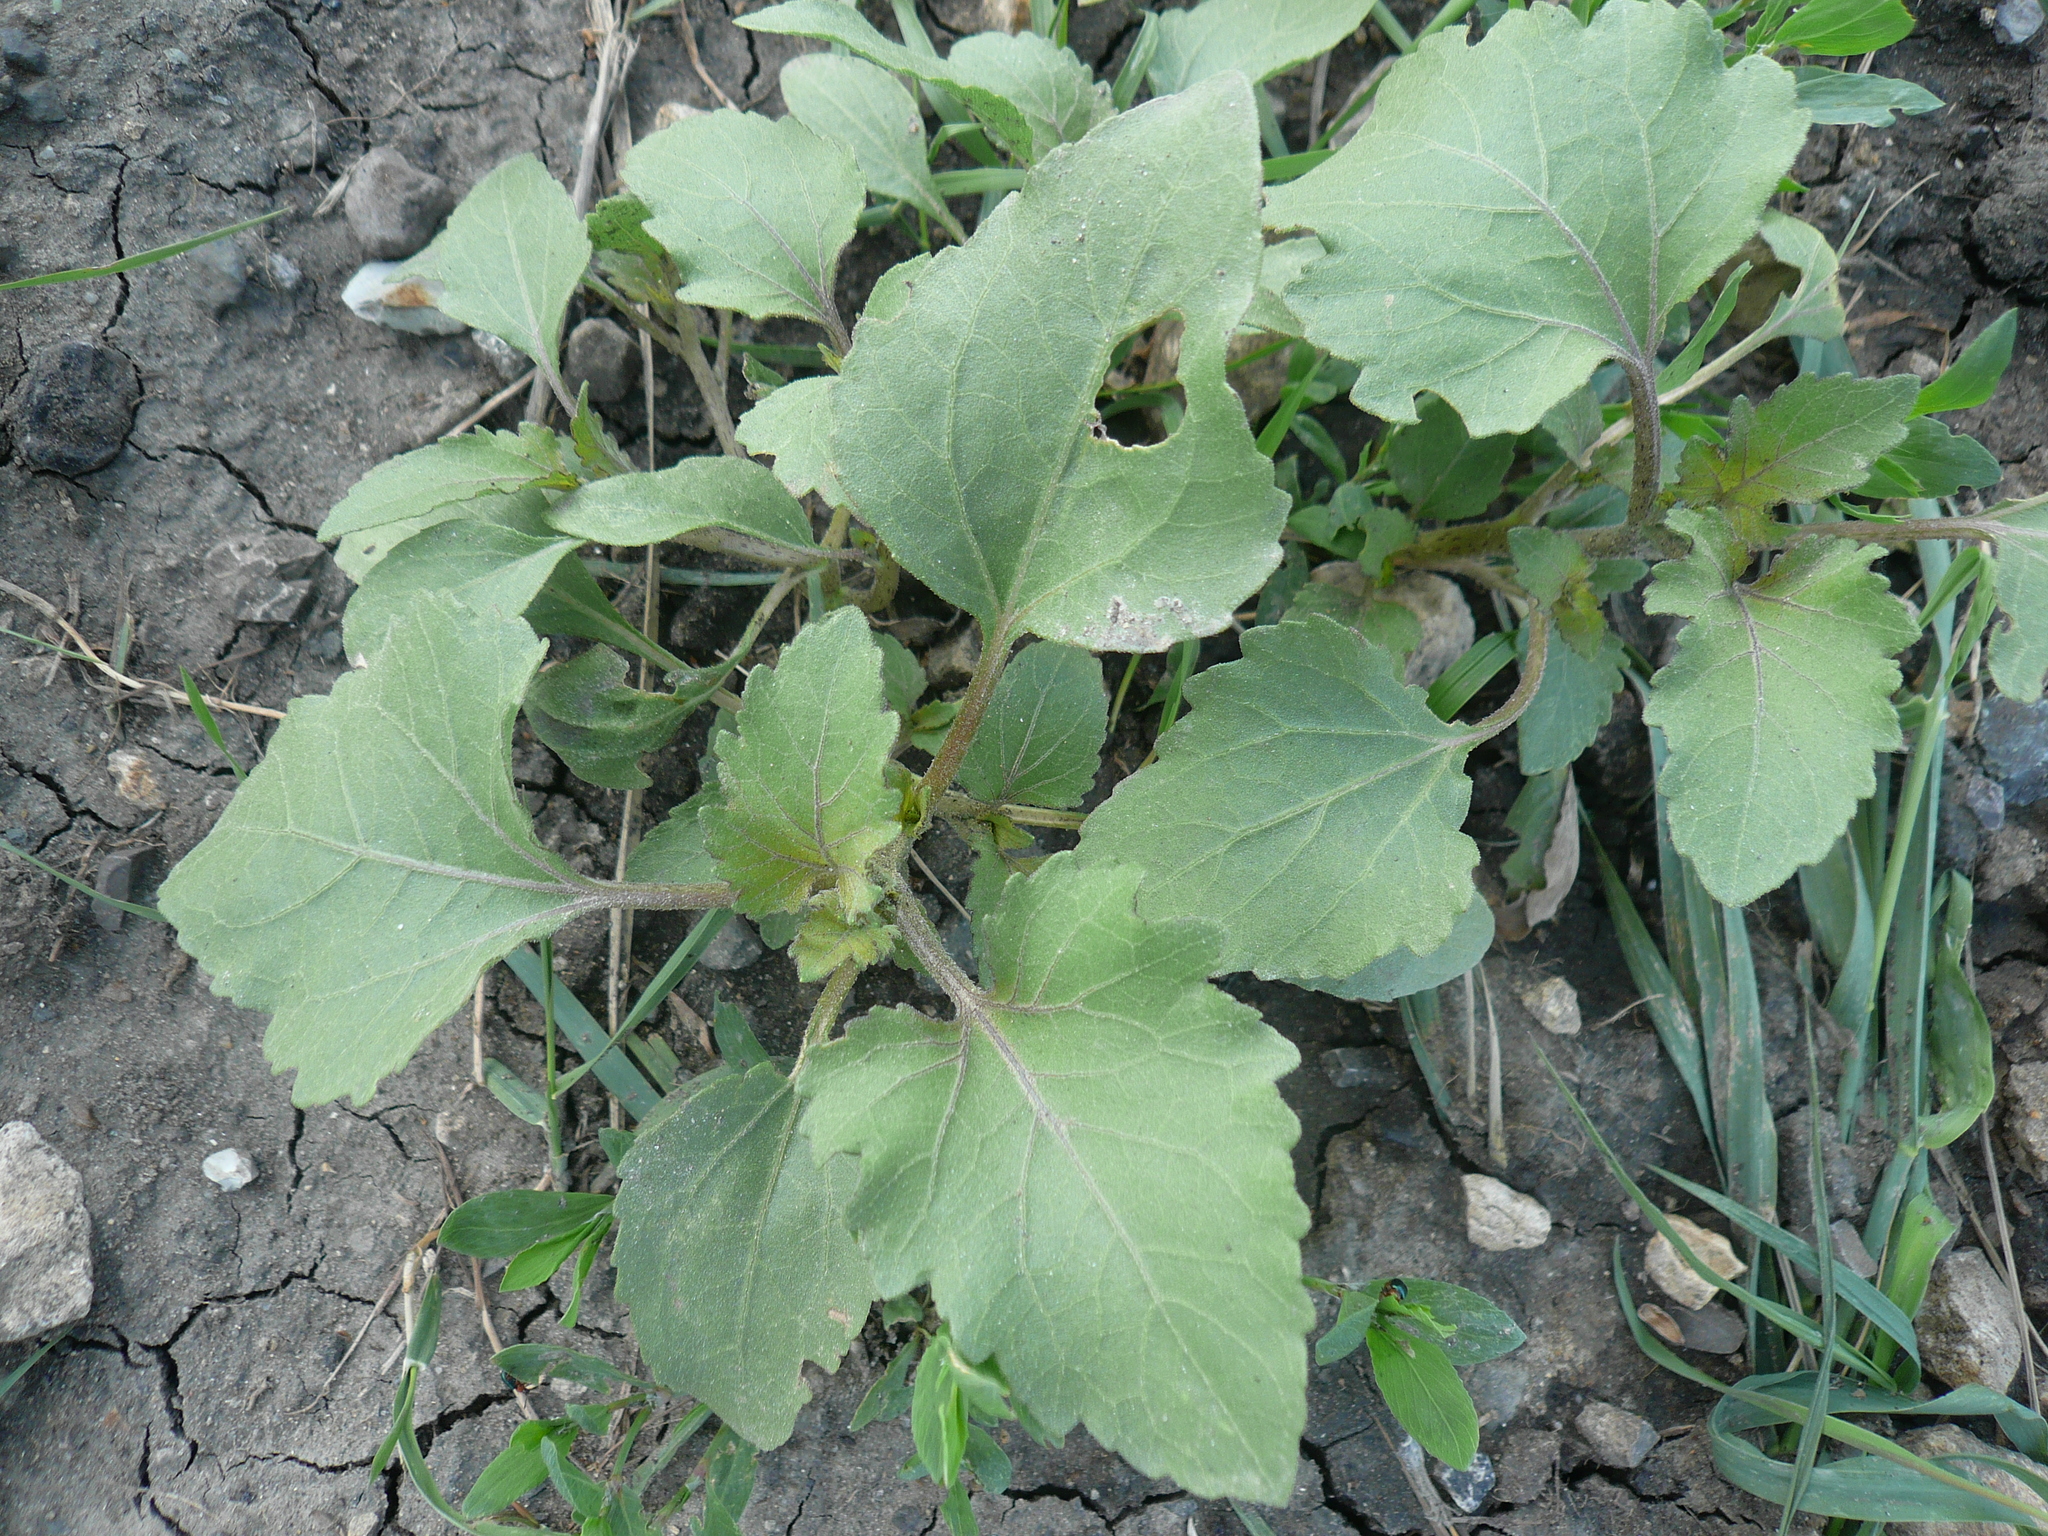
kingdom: Plantae
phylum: Tracheophyta
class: Magnoliopsida
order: Asterales
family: Asteraceae
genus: Xanthium
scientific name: Xanthium orientale
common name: Californian burr
